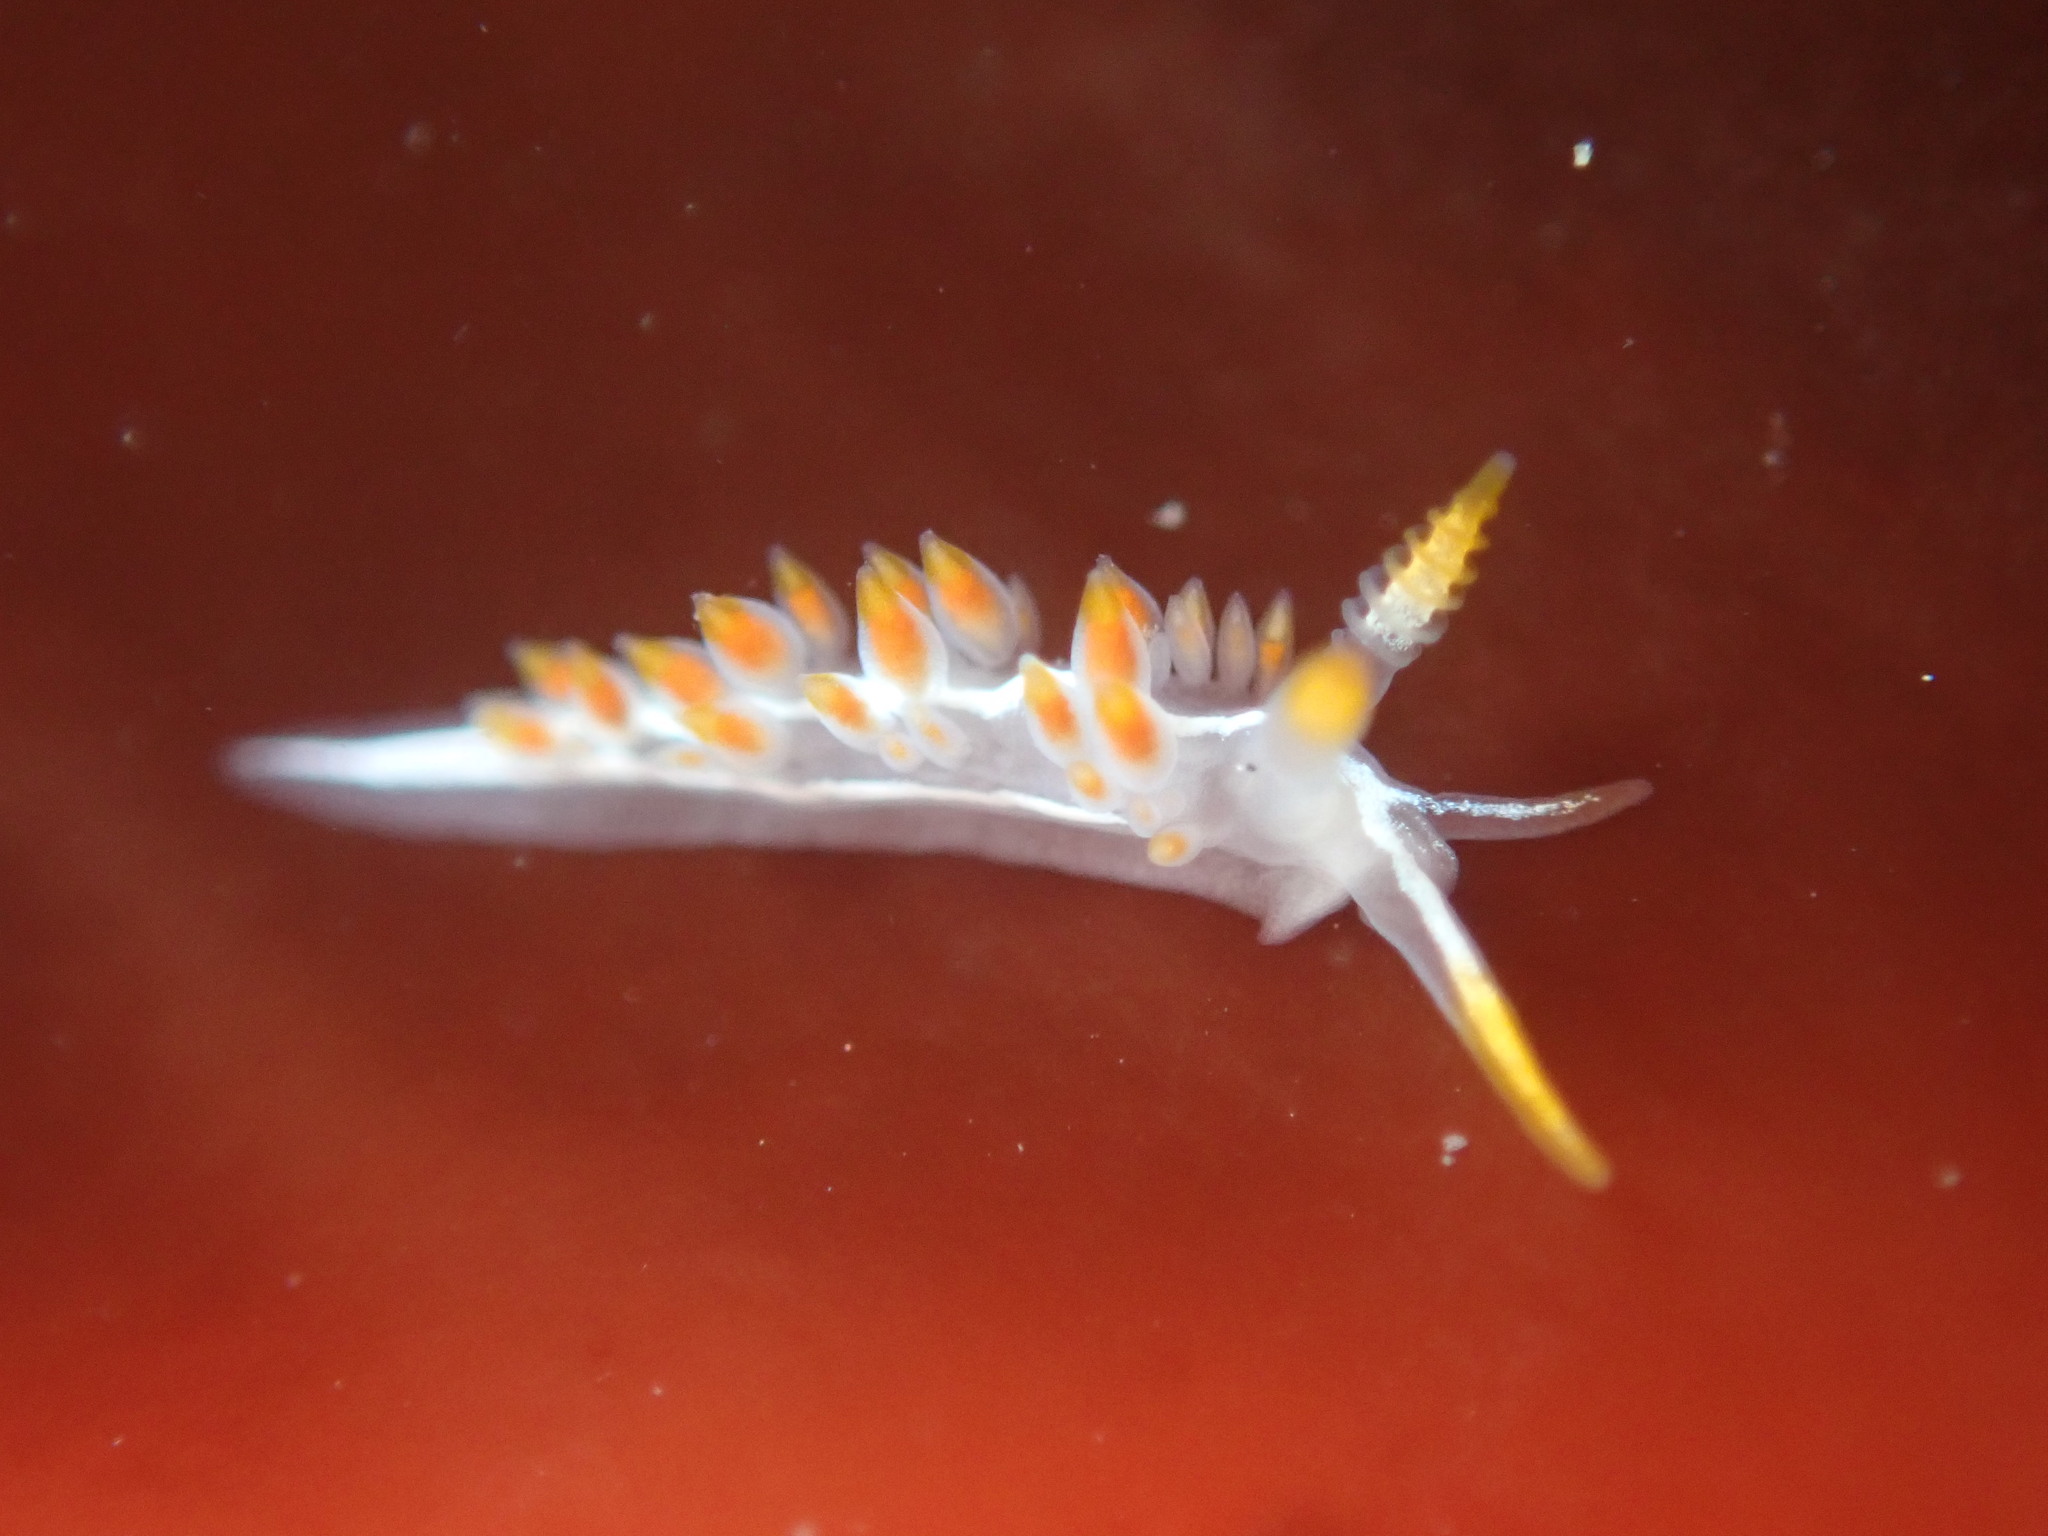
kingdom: Animalia
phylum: Mollusca
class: Gastropoda
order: Nudibranchia
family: Coryphellidae
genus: Coryphella
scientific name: Coryphella trilineata
